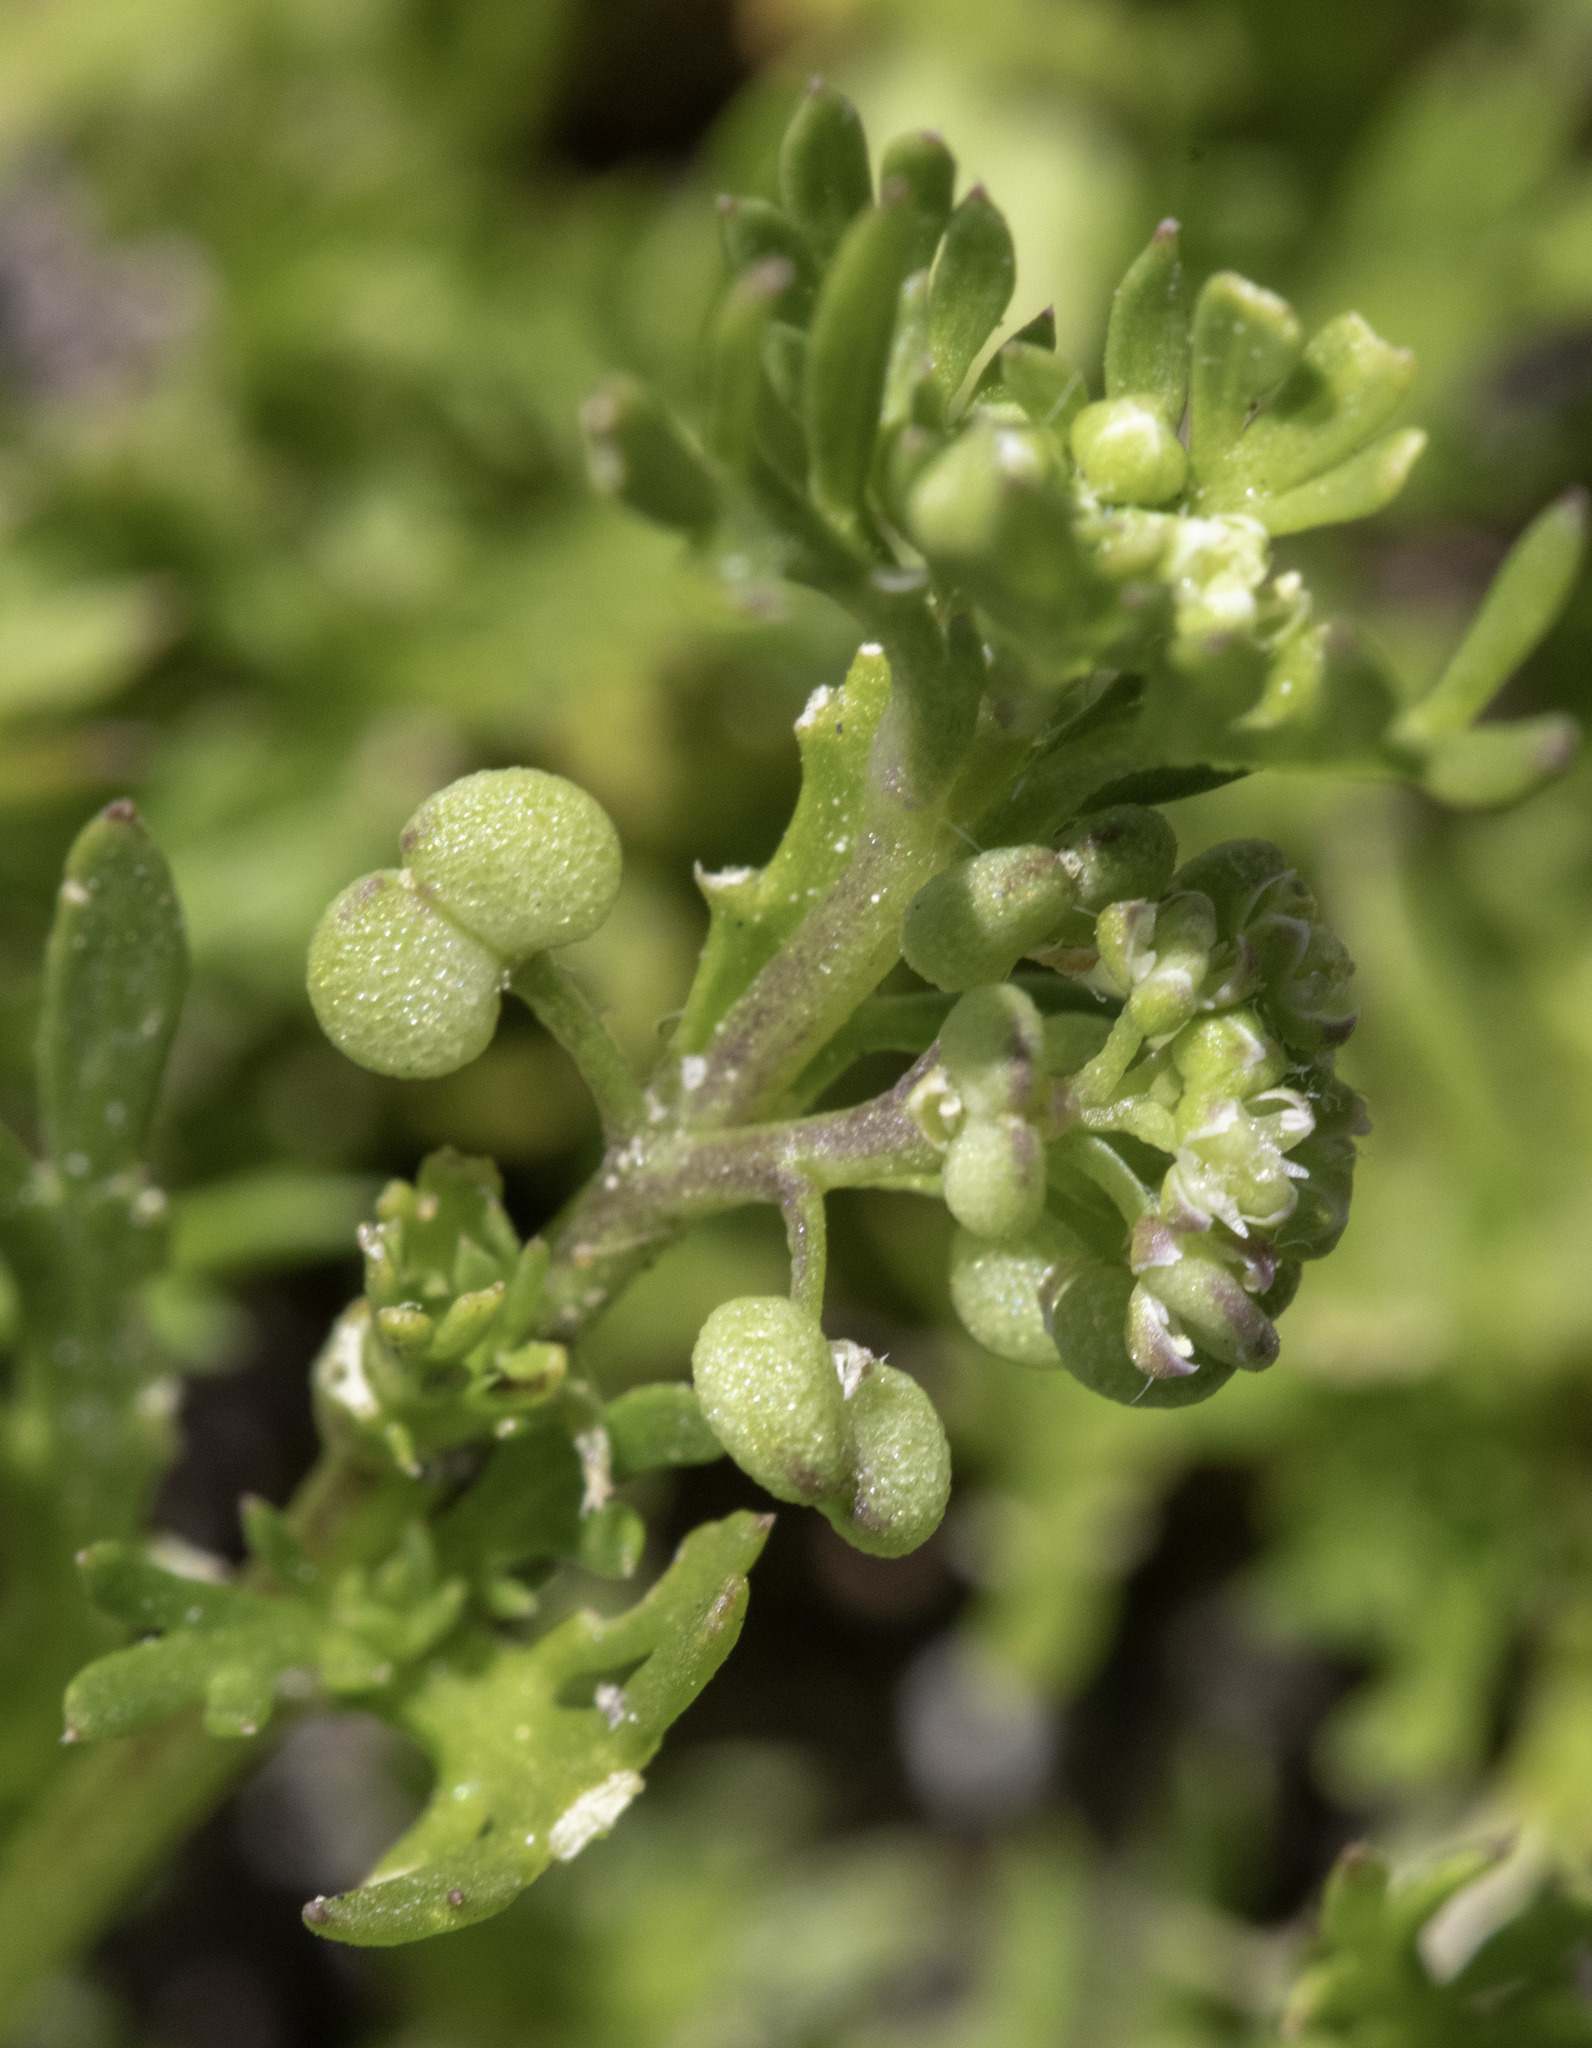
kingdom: Plantae
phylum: Tracheophyta
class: Magnoliopsida
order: Brassicales
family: Brassicaceae
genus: Lepidium
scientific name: Lepidium didymum
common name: Lesser swinecress
